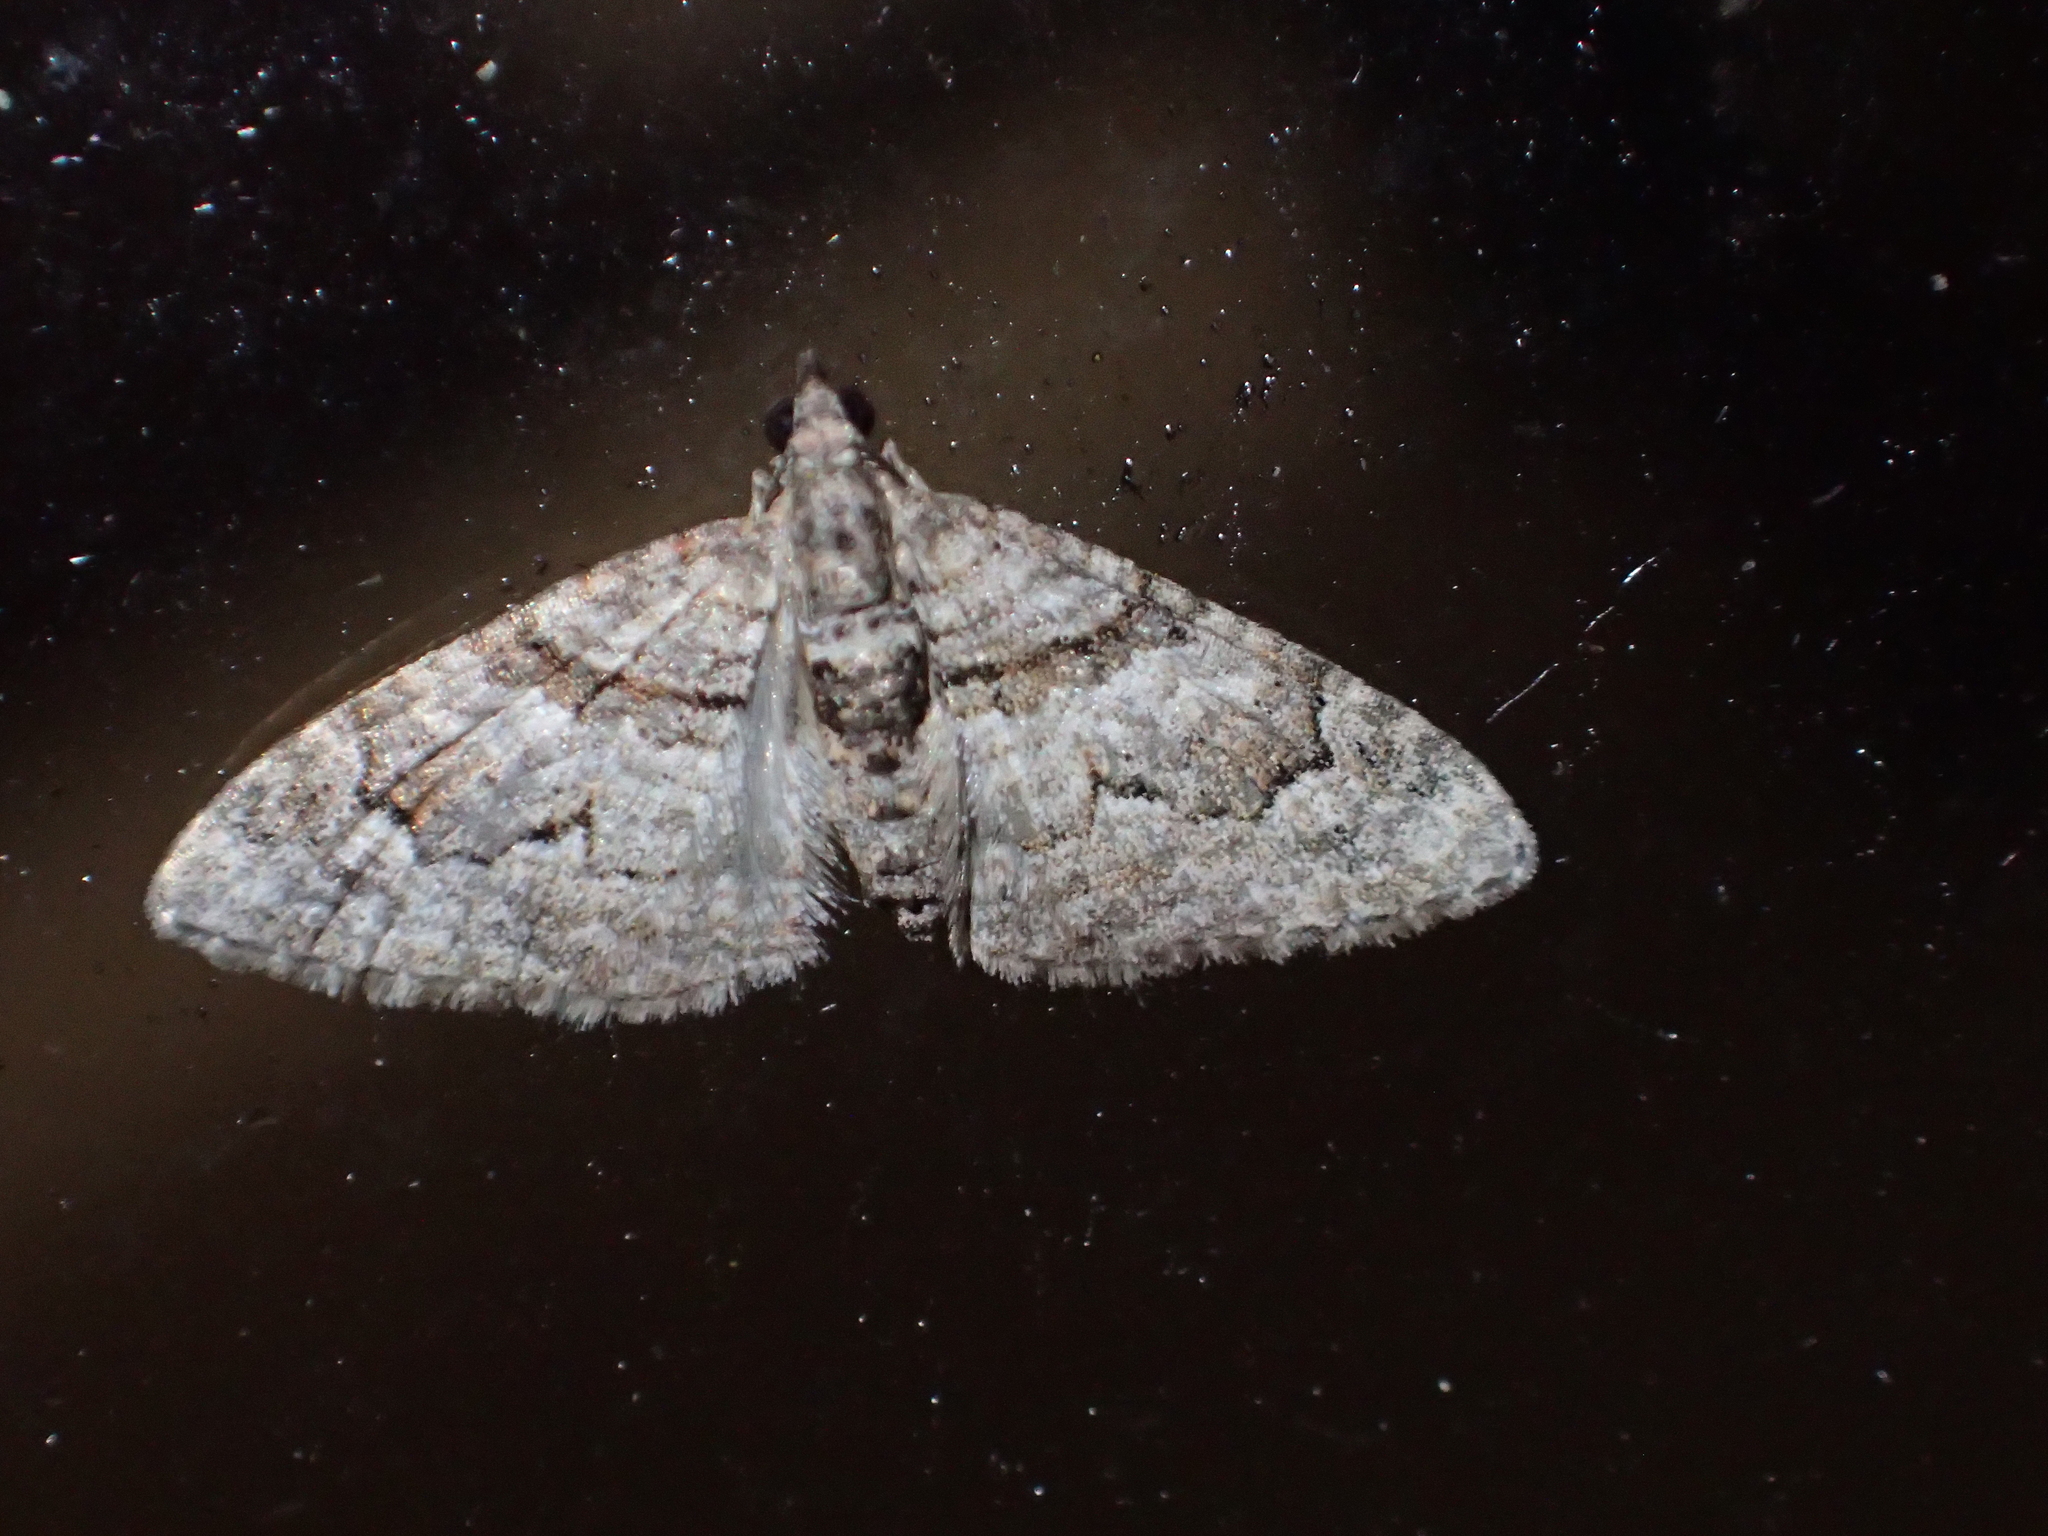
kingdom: Animalia
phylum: Arthropoda
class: Insecta
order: Lepidoptera
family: Geometridae
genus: Phrissogonus
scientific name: Phrissogonus laticostata
